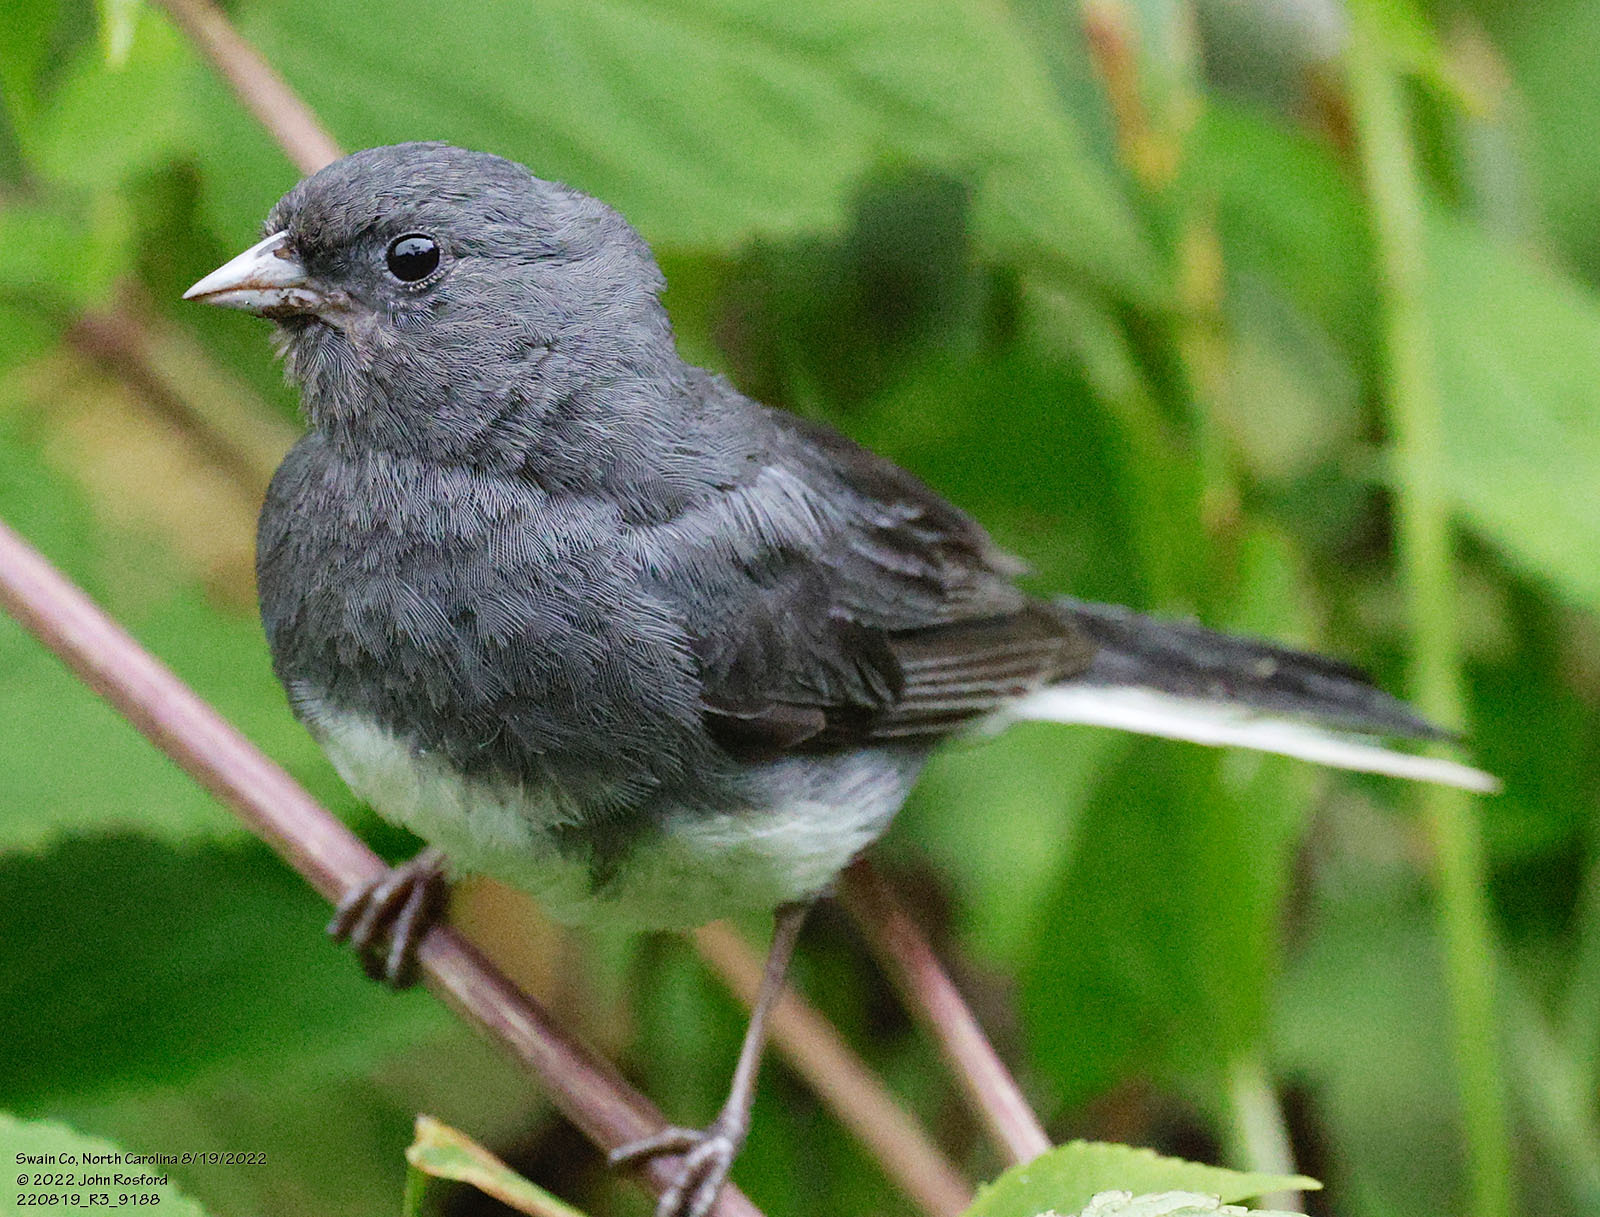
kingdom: Animalia
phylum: Chordata
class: Aves
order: Passeriformes
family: Passerellidae
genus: Junco
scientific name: Junco hyemalis
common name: Dark-eyed junco
